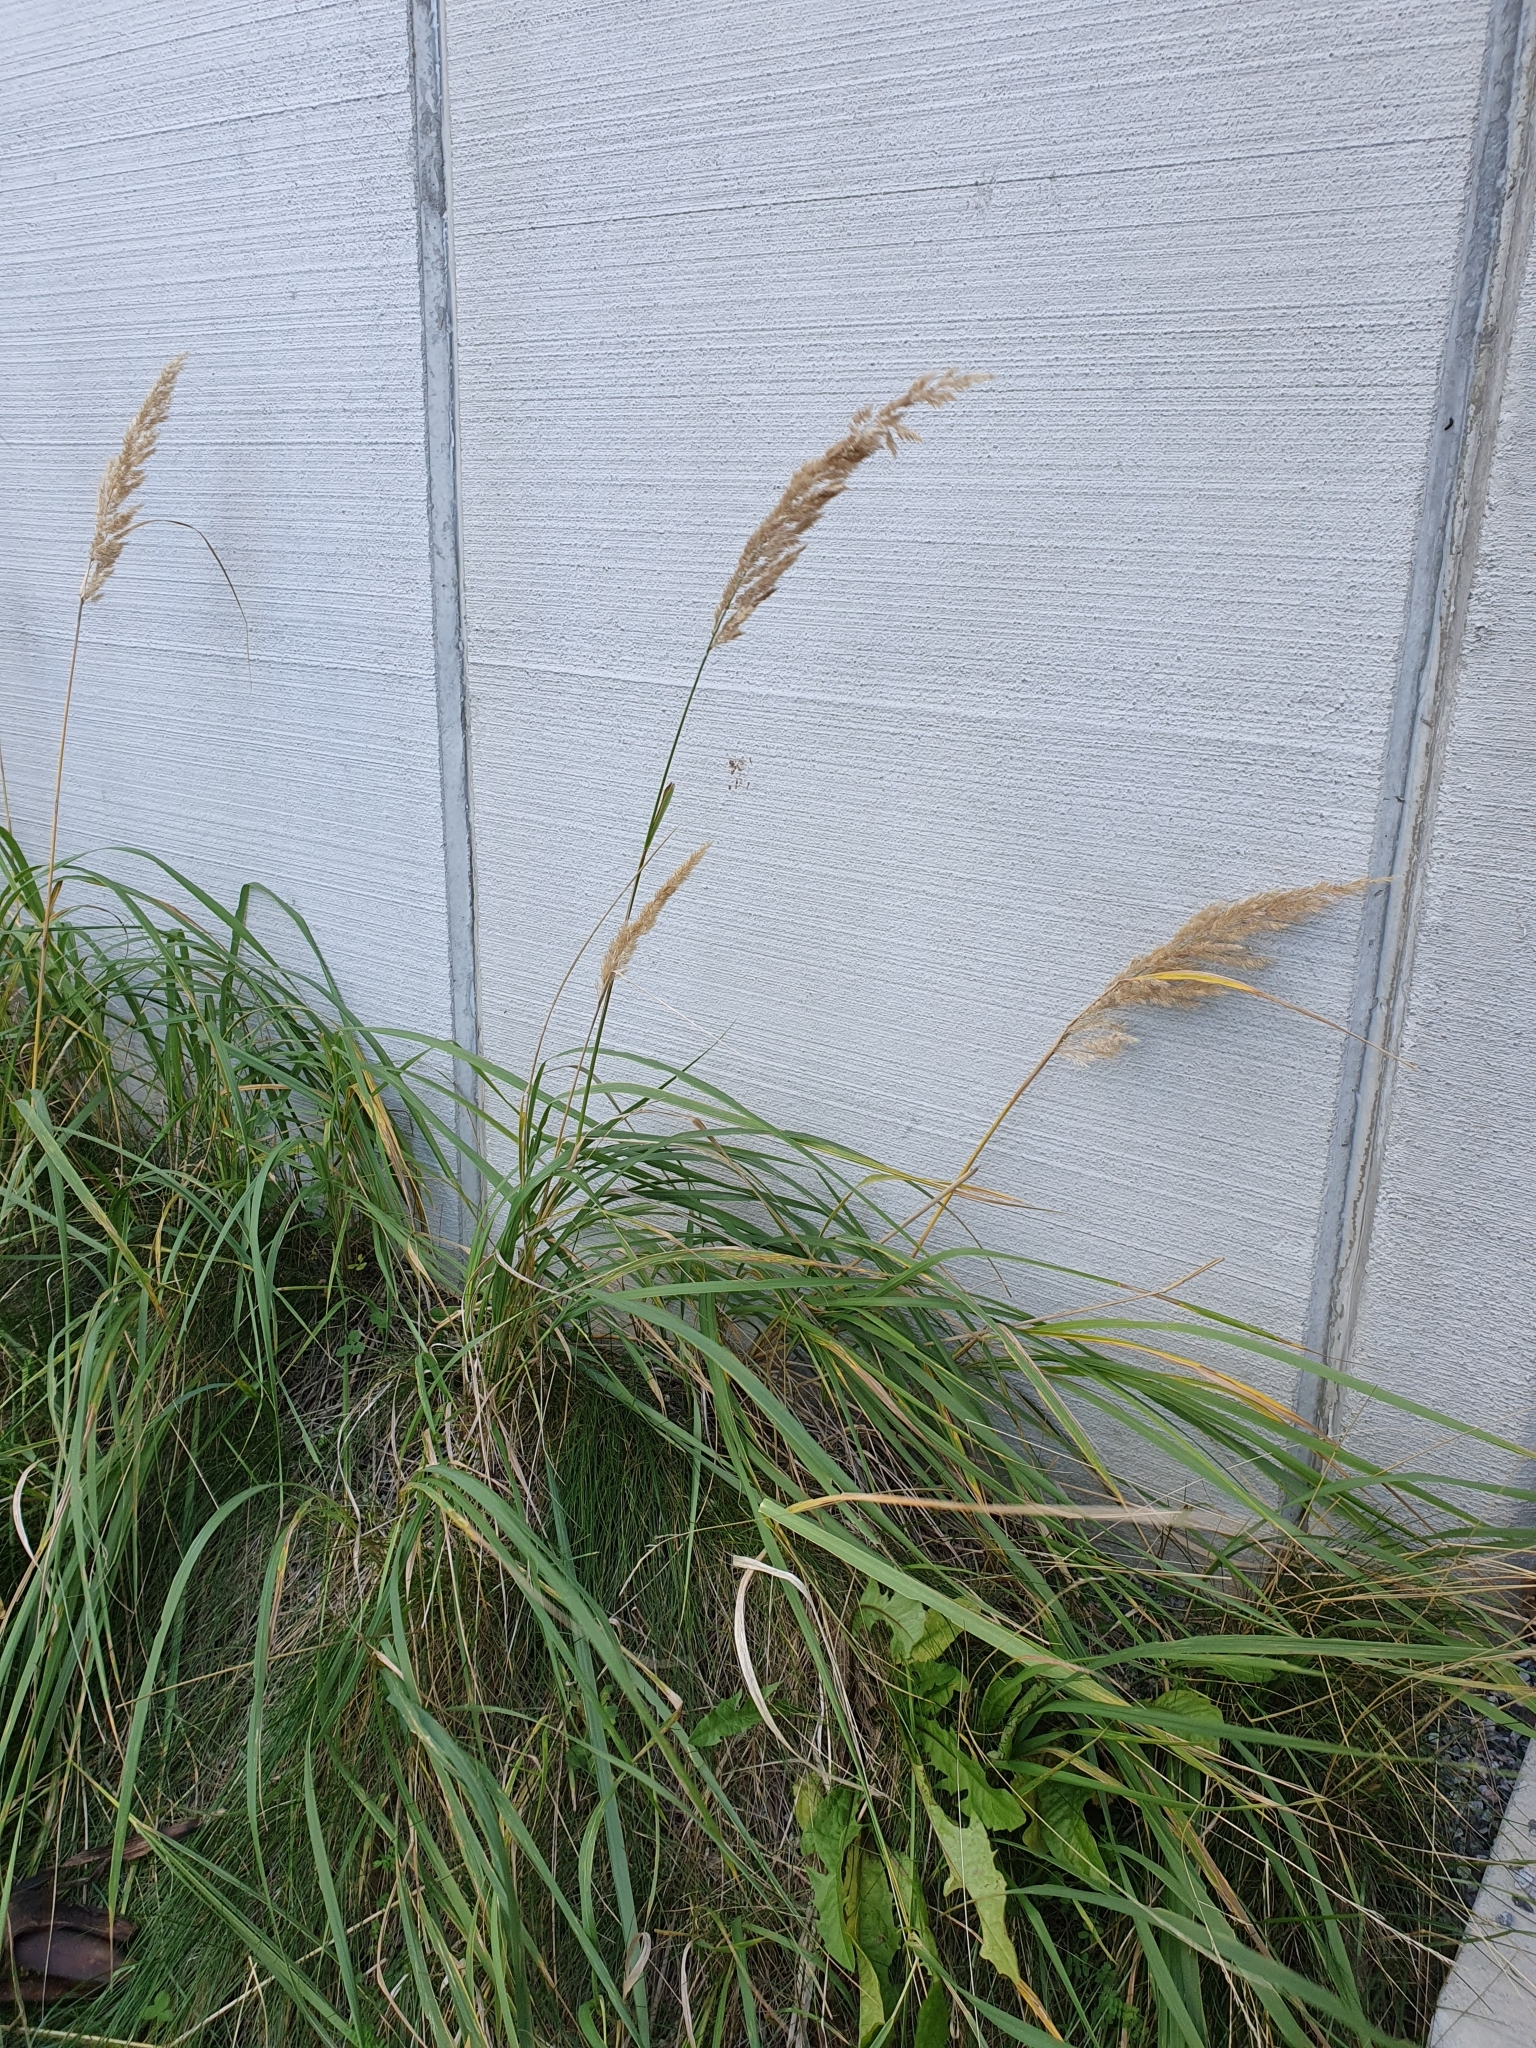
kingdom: Plantae
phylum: Tracheophyta
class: Liliopsida
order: Poales
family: Poaceae
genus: Calamagrostis
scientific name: Calamagrostis epigejos
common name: Wood small-reed
